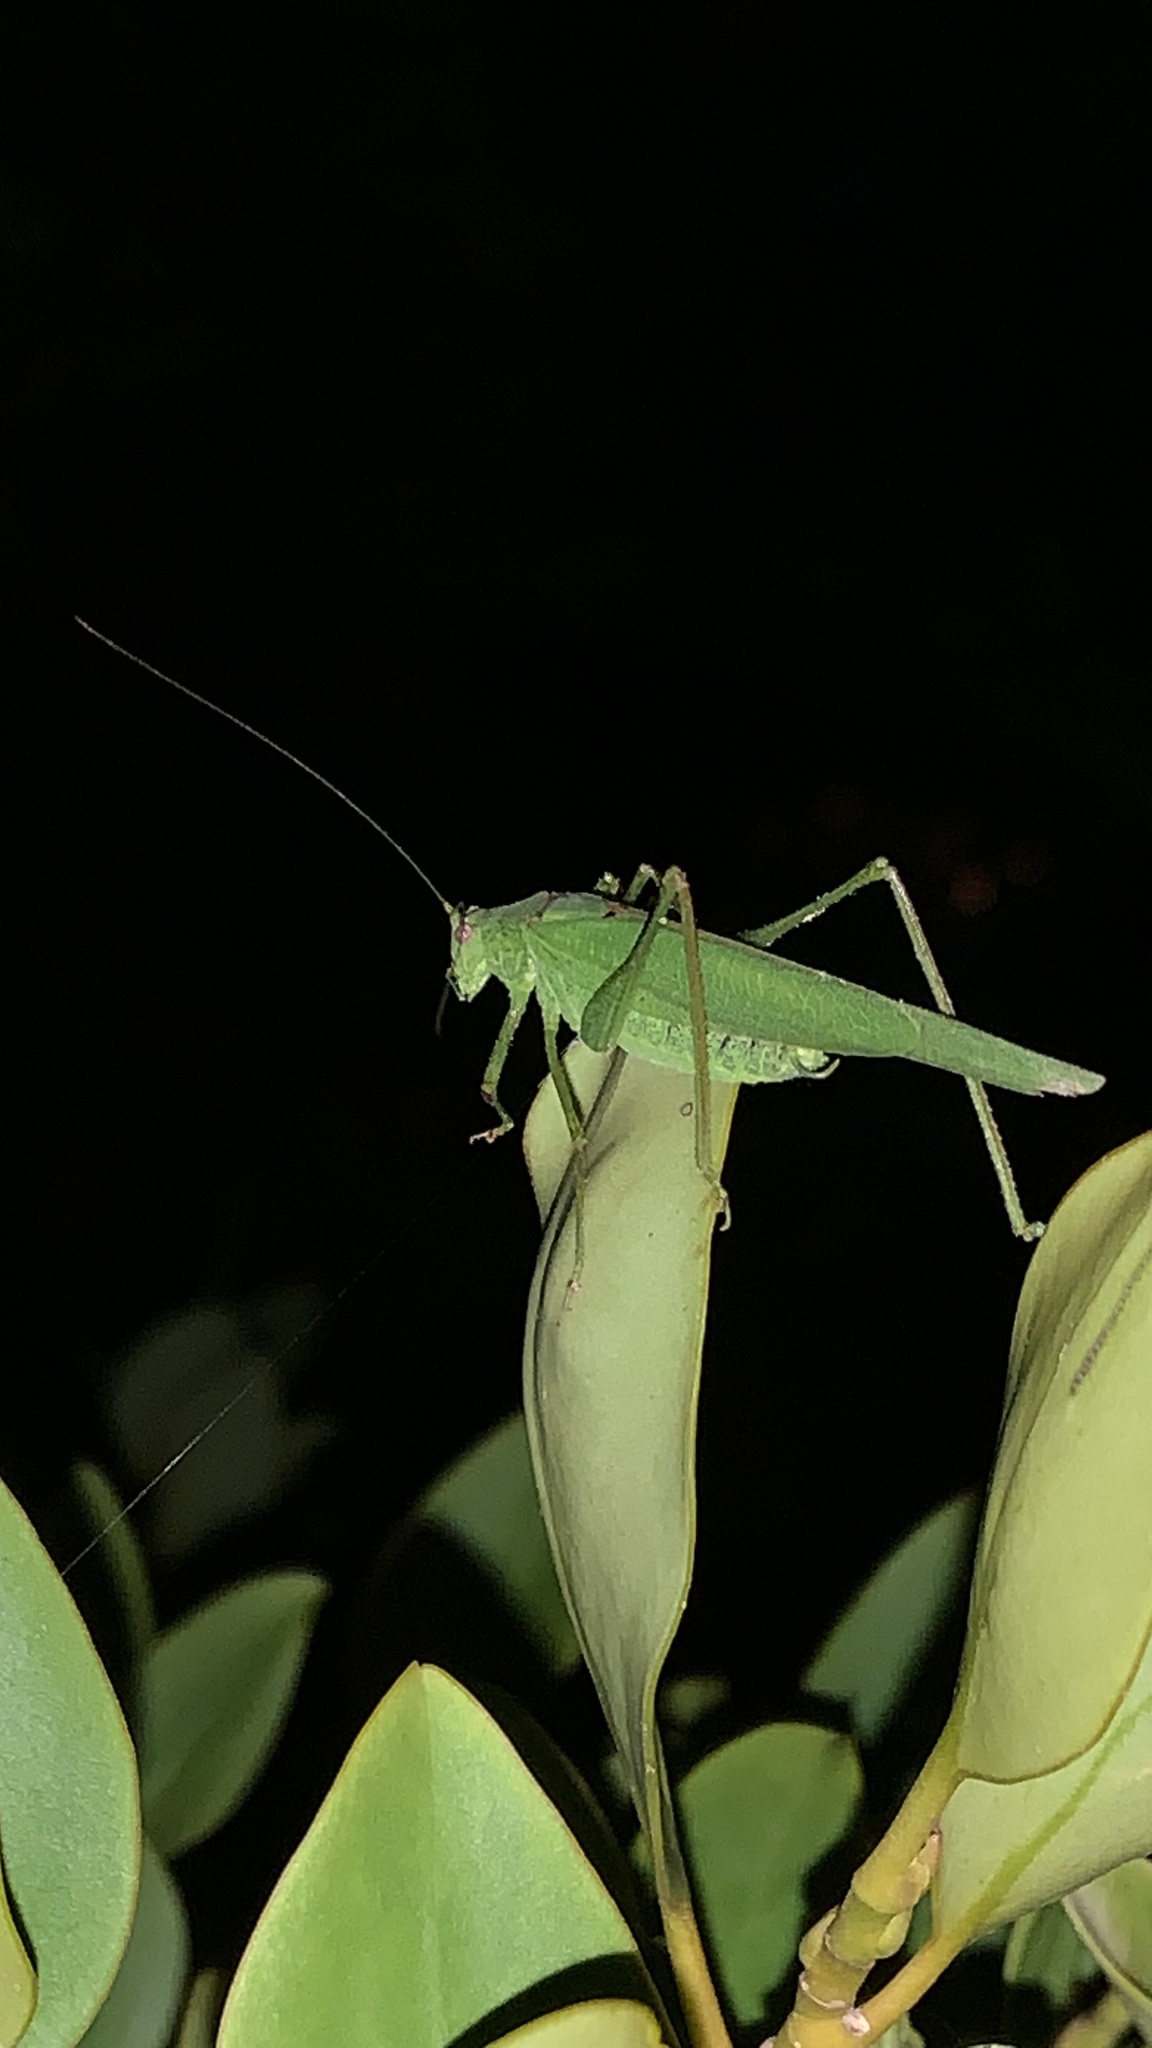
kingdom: Animalia
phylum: Arthropoda
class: Insecta
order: Orthoptera
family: Tettigoniidae
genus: Phaneroptera
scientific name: Phaneroptera nana
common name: Southern sickle bush-cricket
